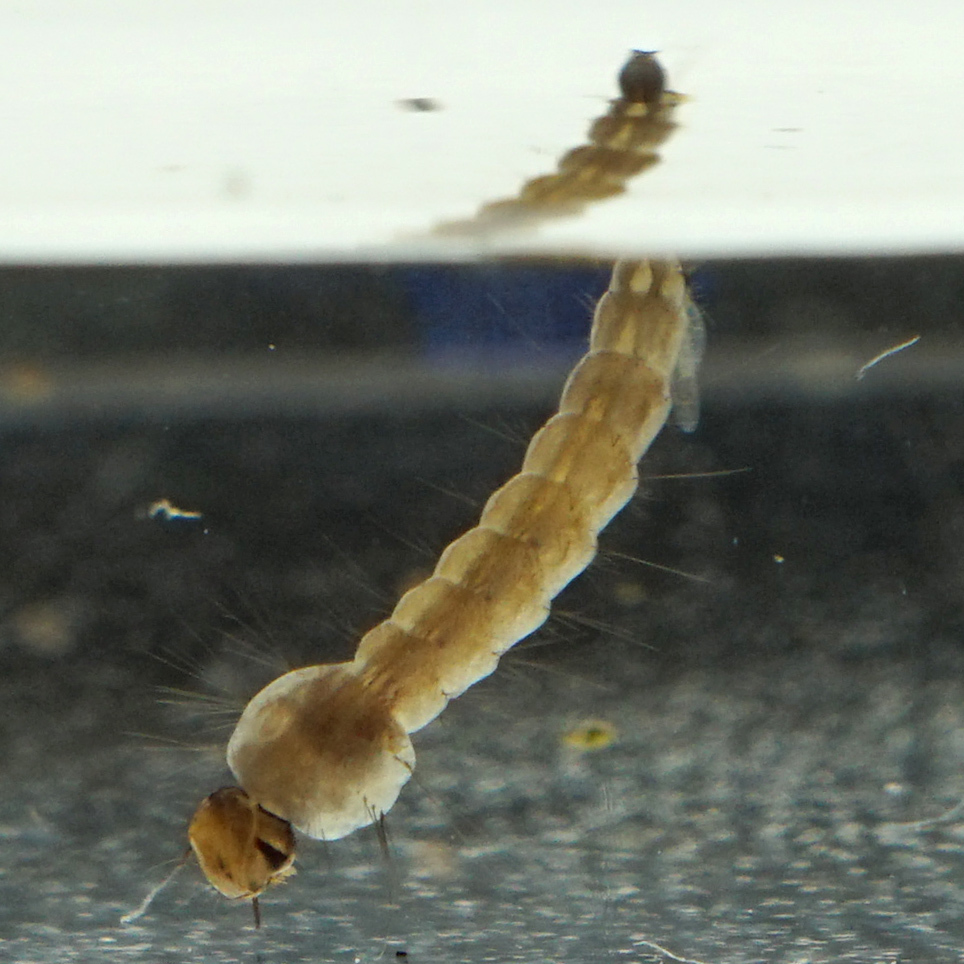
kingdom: Animalia
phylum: Arthropoda
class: Insecta
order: Diptera
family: Culicidae
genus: Aedes
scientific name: Aedes albopictus
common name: Tiger mosquito
